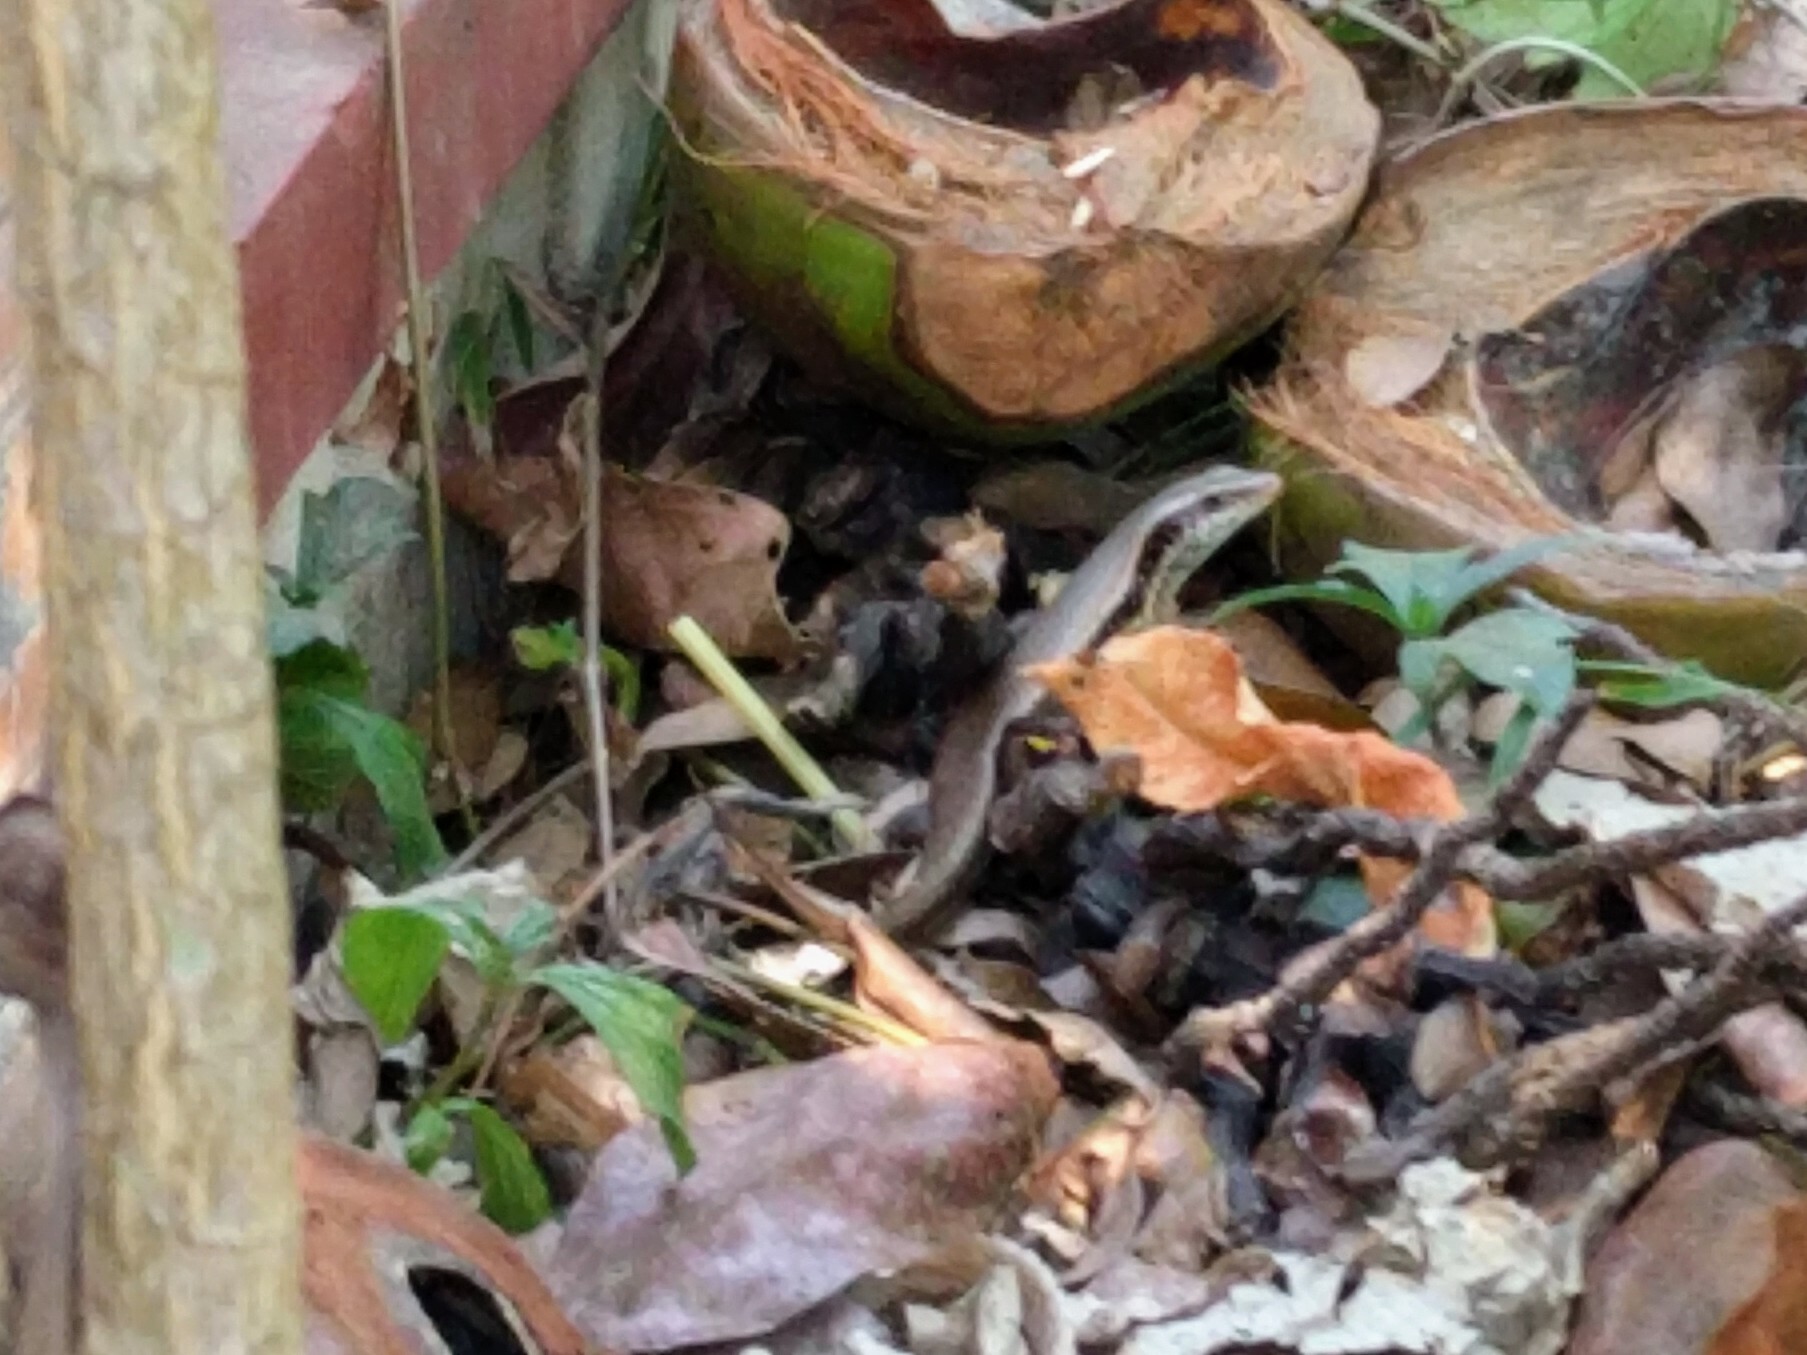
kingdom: Animalia
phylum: Chordata
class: Squamata
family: Scincidae
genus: Eutropis
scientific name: Eutropis longicaudata
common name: Long-tailed sun skink
